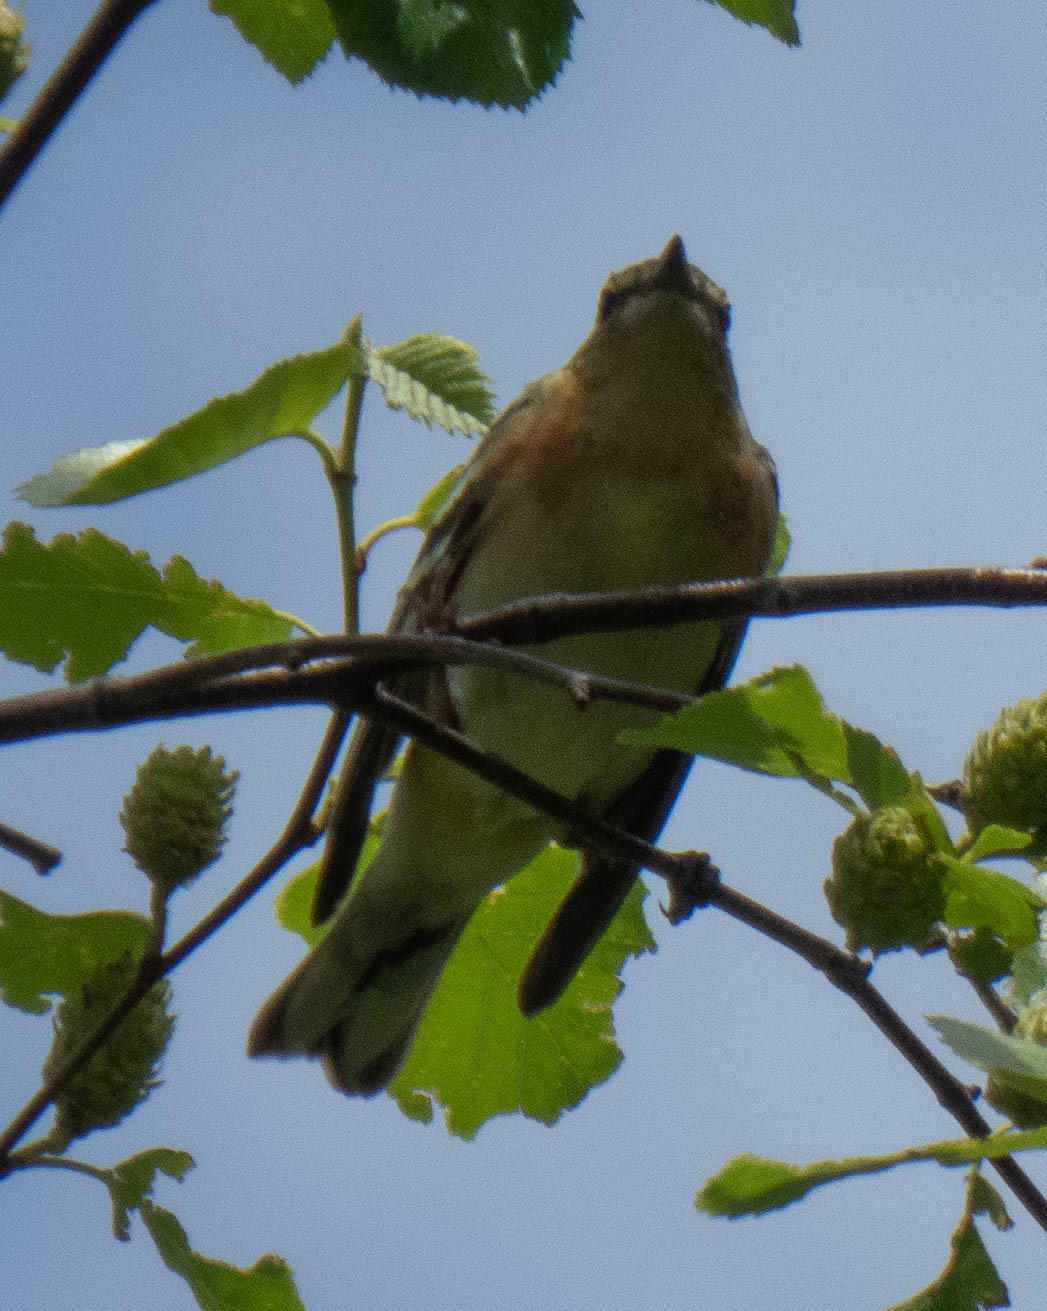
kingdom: Animalia
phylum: Chordata
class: Aves
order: Passeriformes
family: Parulidae
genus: Setophaga
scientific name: Setophaga castanea
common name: Bay-breasted warbler
